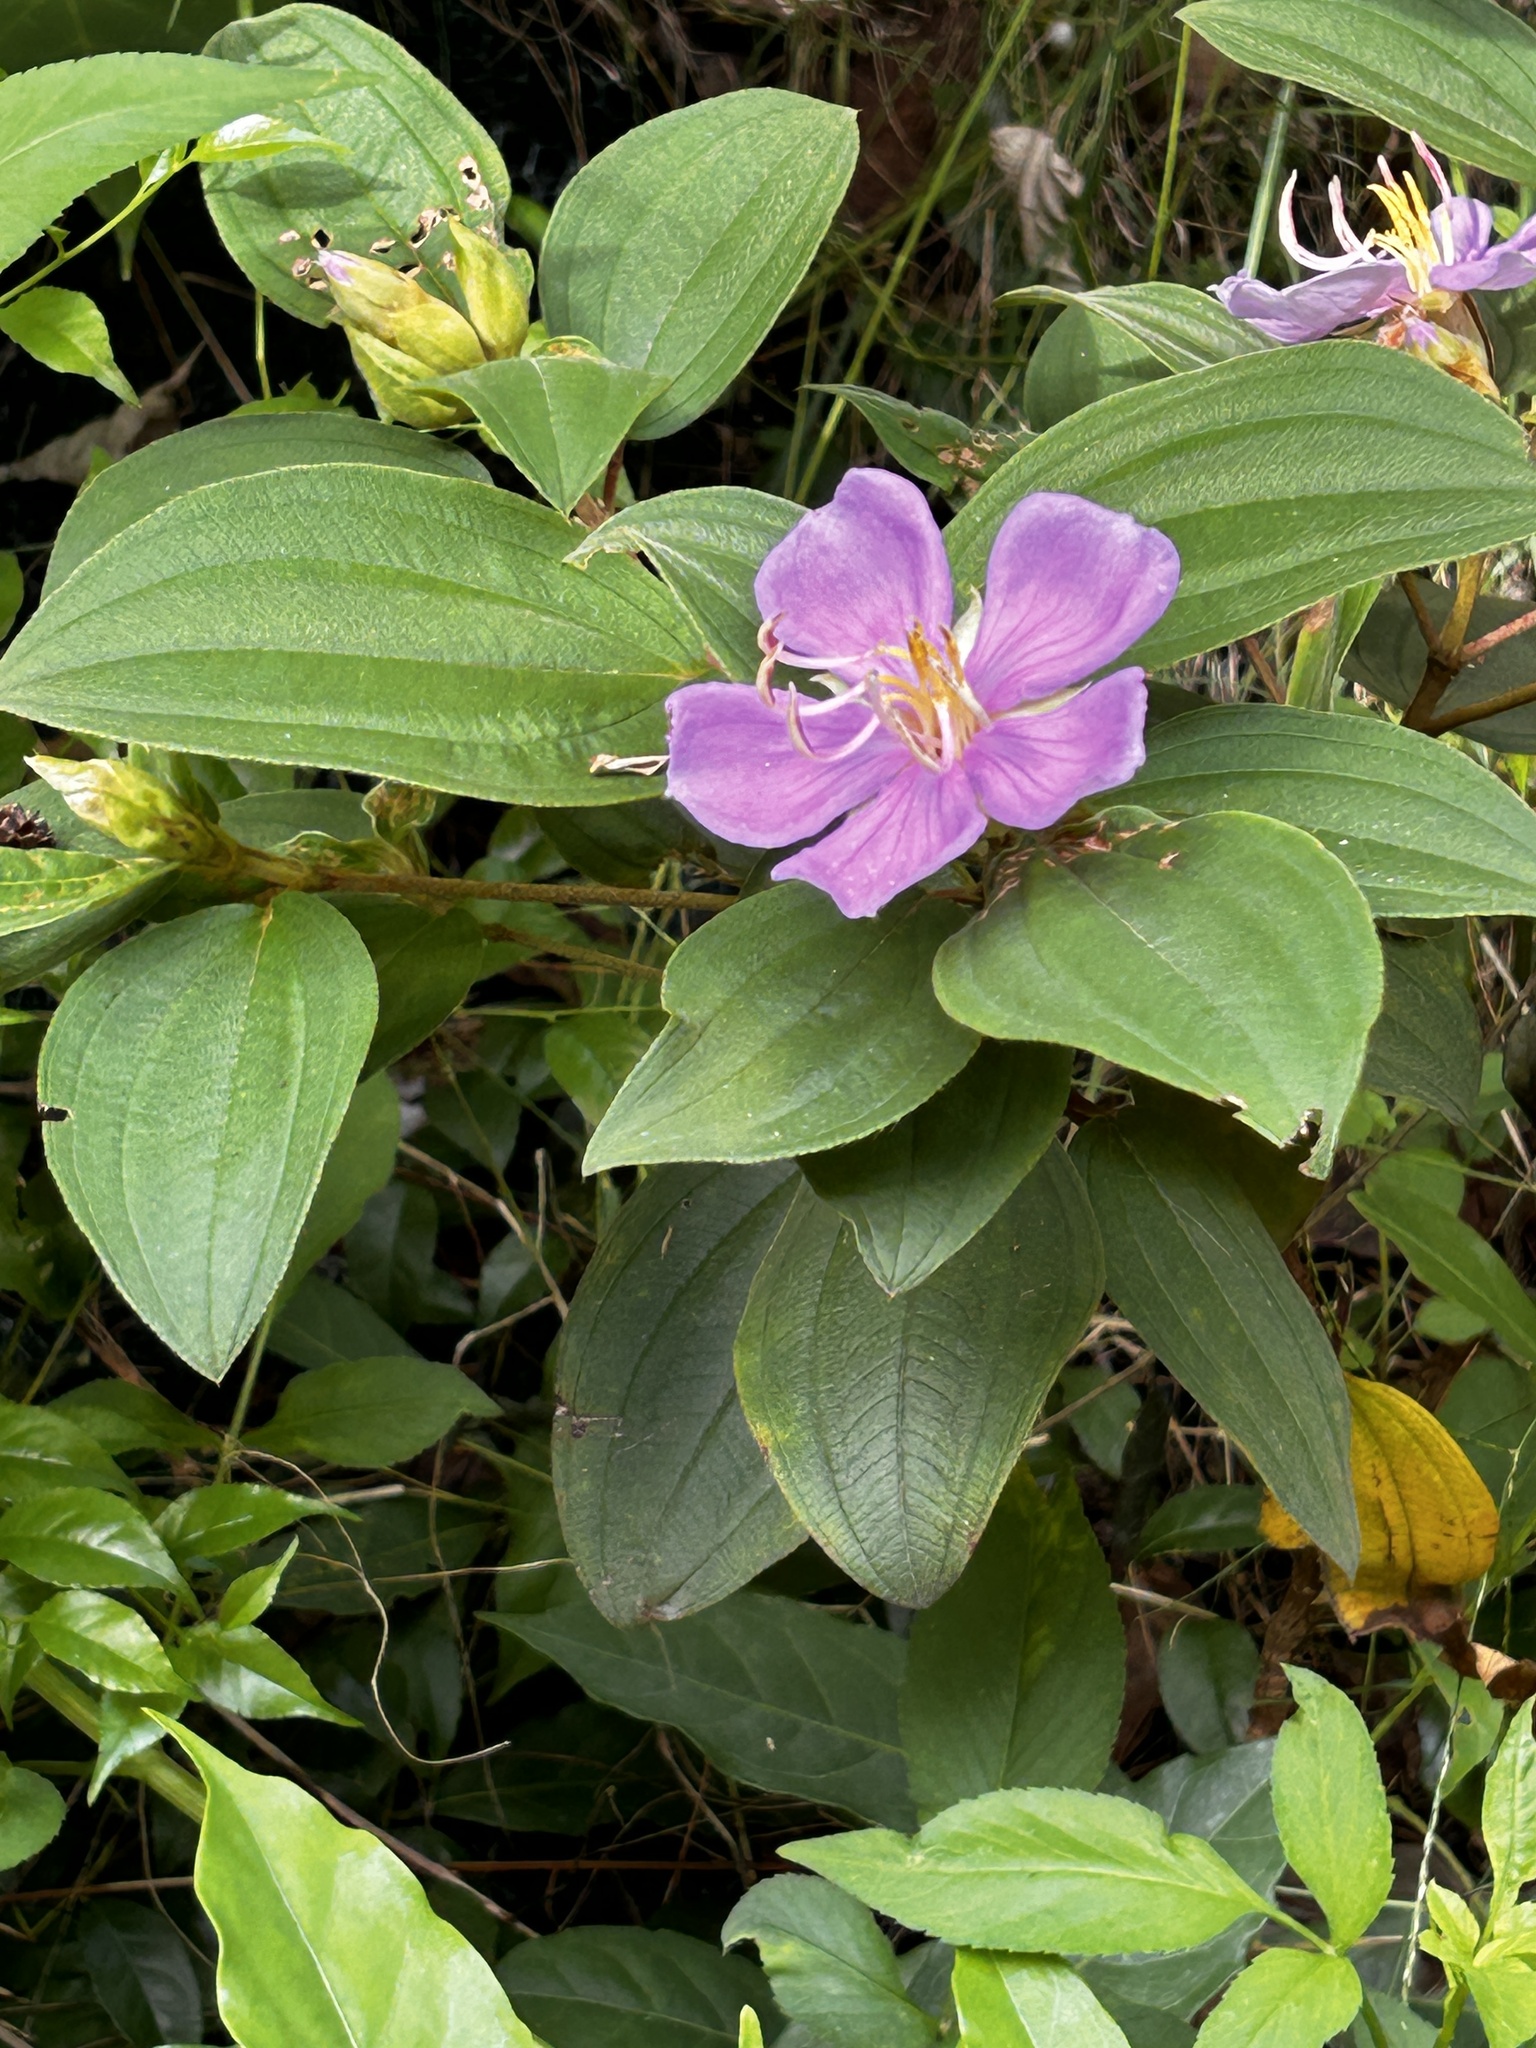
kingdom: Plantae
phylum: Tracheophyta
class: Magnoliopsida
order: Myrtales
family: Melastomataceae
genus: Melastoma
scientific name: Melastoma malabathricum
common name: Indian-rhododendron
